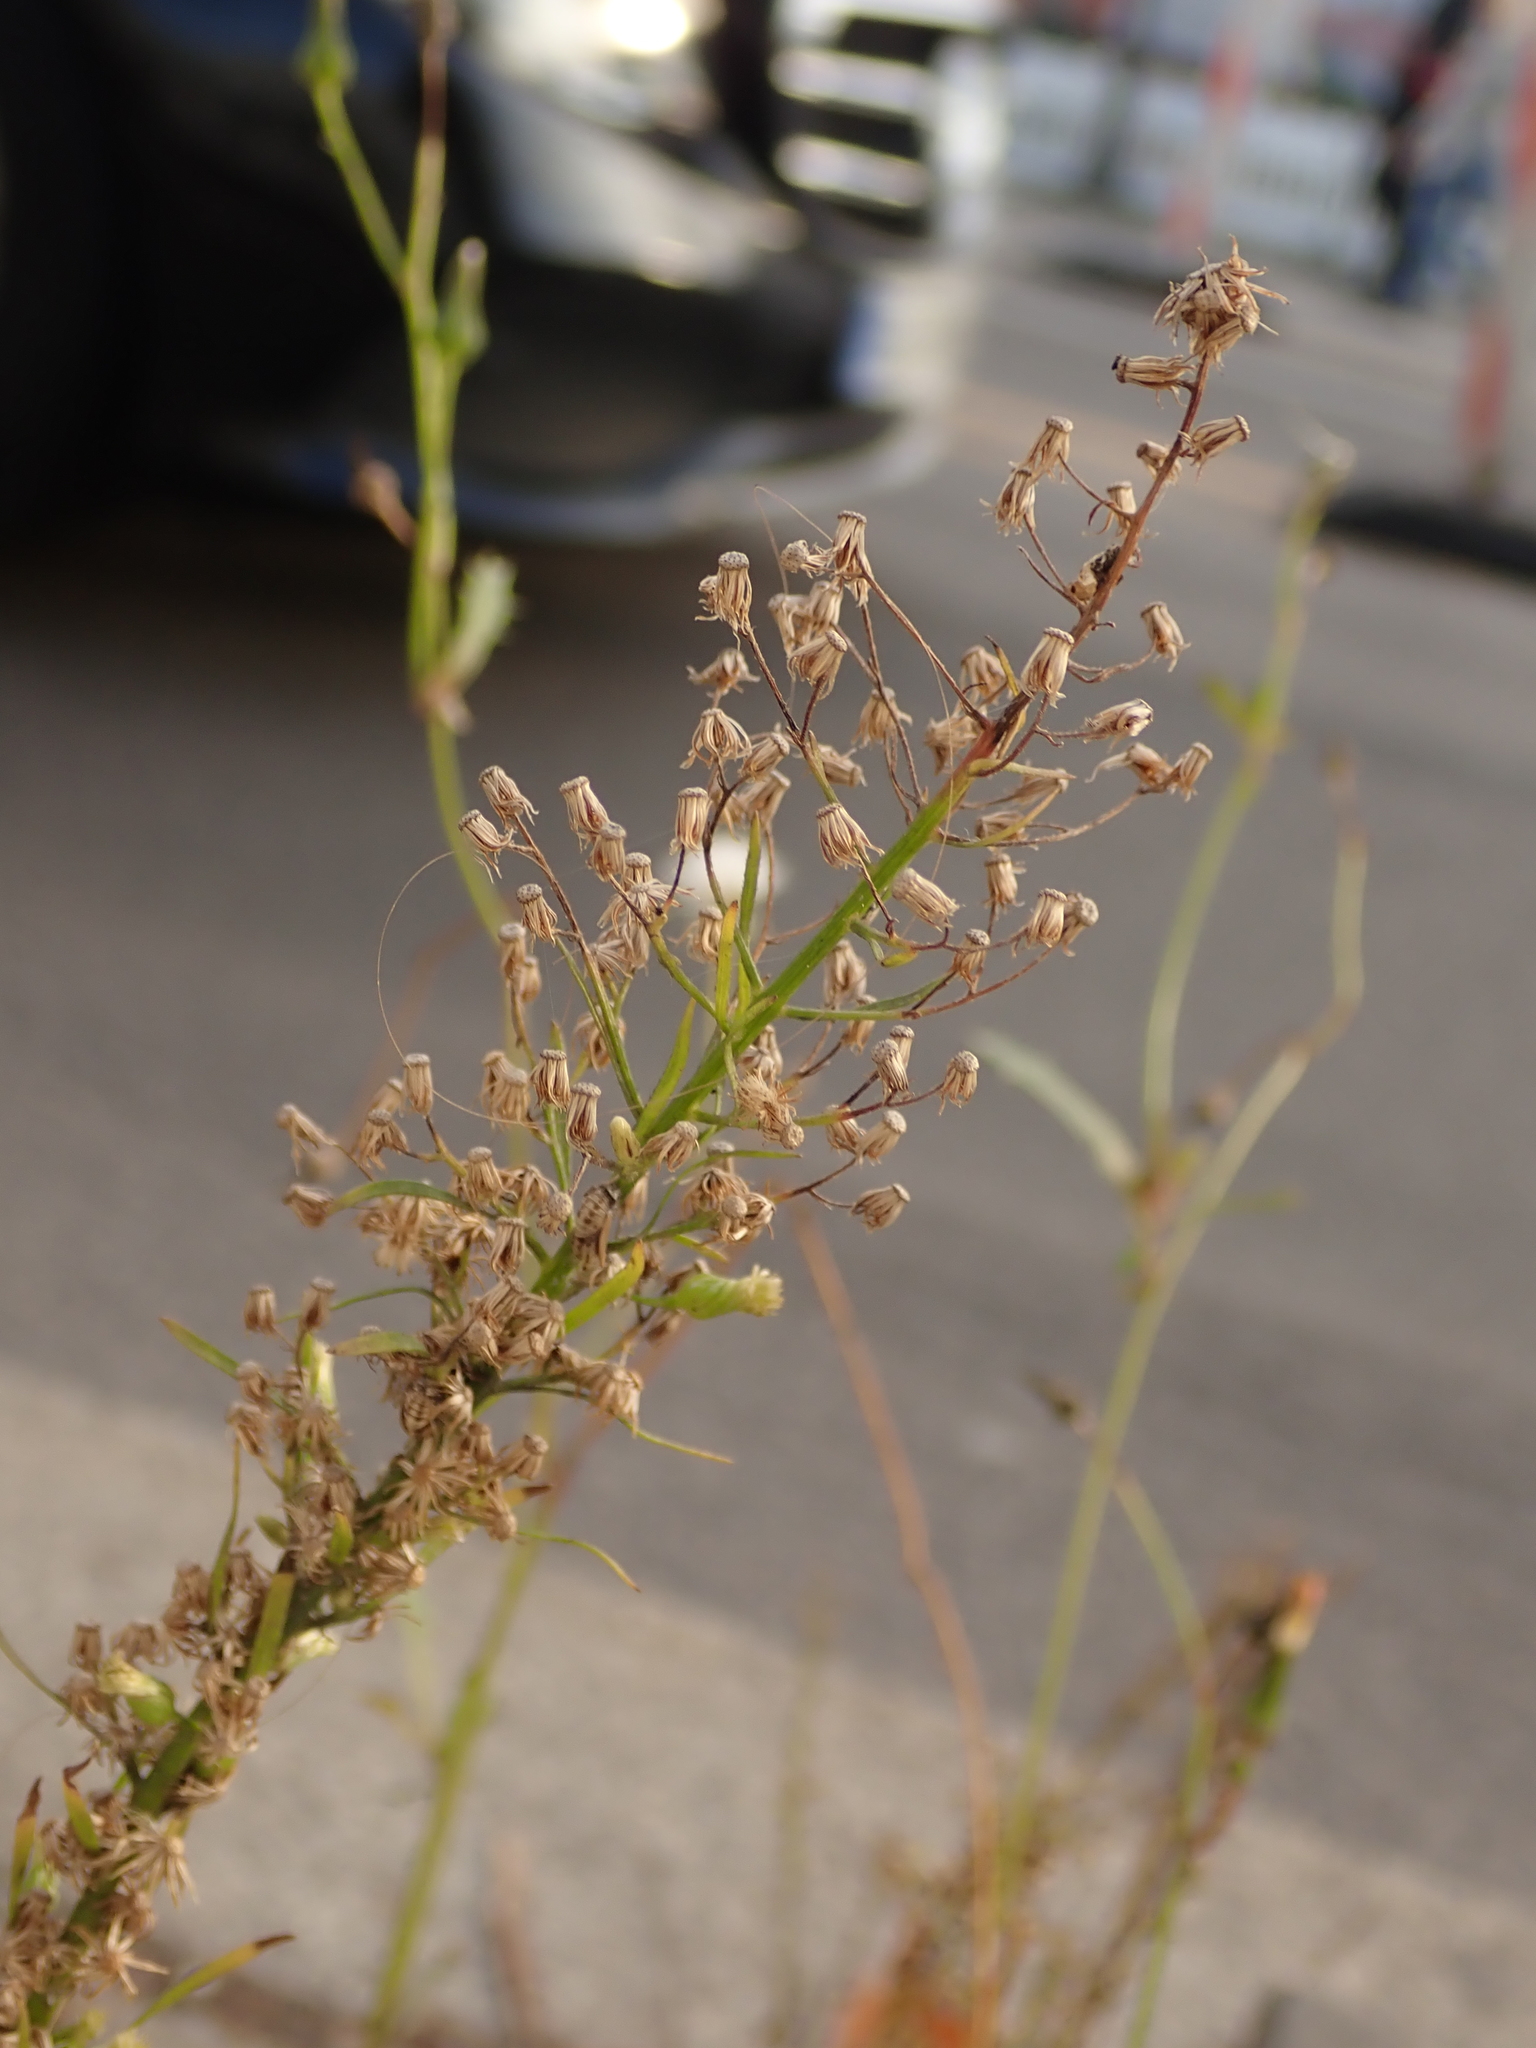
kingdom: Plantae
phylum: Tracheophyta
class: Magnoliopsida
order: Asterales
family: Asteraceae
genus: Erigeron
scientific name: Erigeron canadensis
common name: Canadian fleabane
